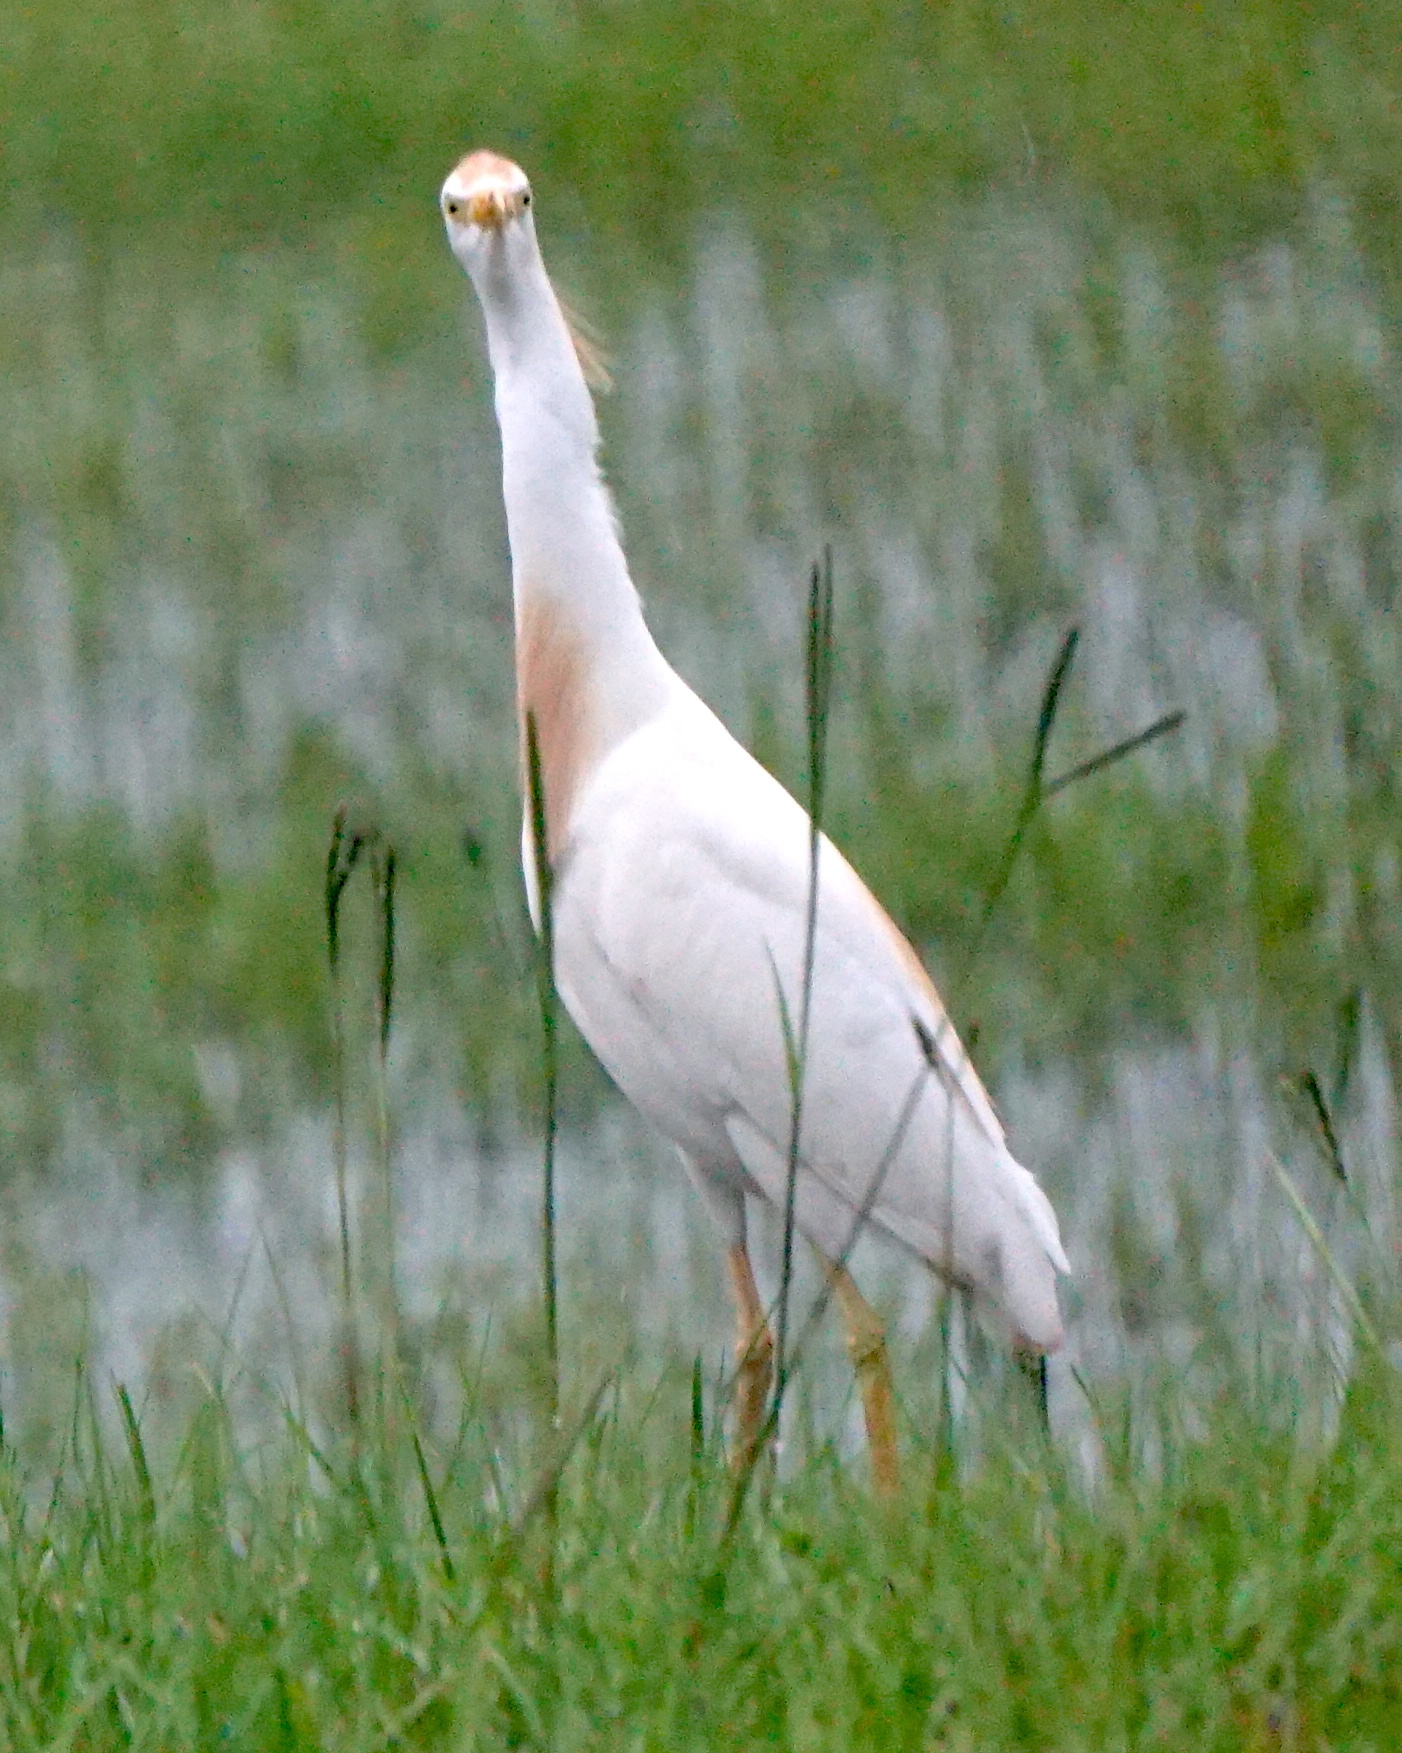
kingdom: Animalia
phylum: Chordata
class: Aves
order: Pelecaniformes
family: Ardeidae
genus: Bubulcus
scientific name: Bubulcus ibis
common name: Cattle egret
